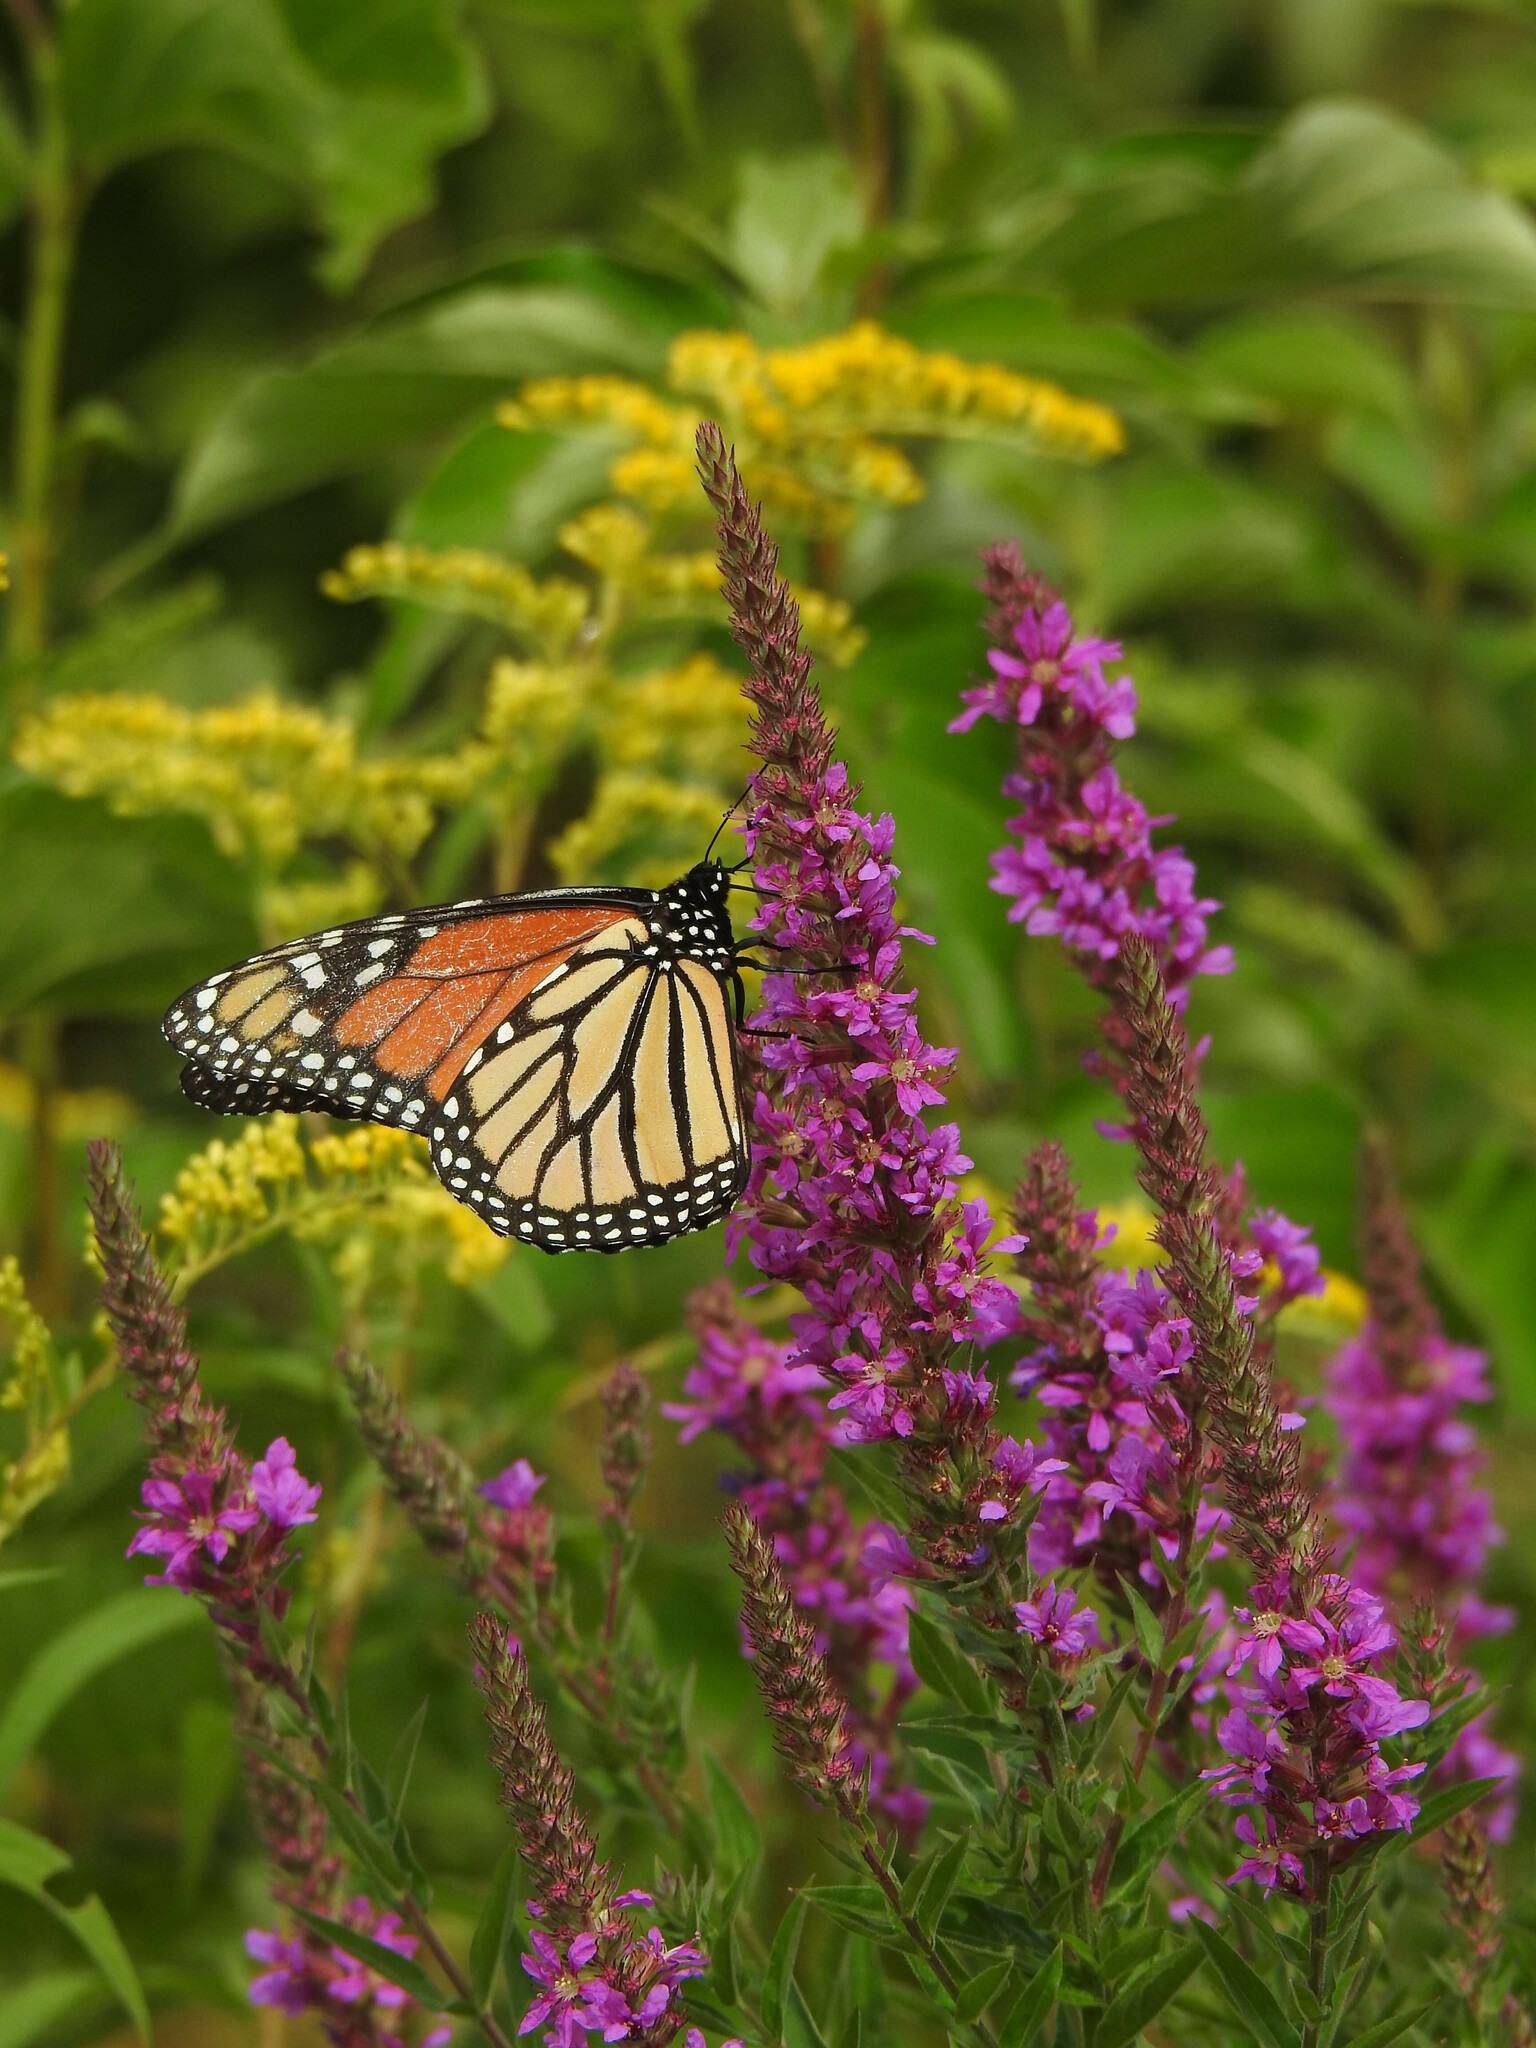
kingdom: Animalia
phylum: Arthropoda
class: Insecta
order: Lepidoptera
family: Nymphalidae
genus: Danaus
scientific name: Danaus plexippus
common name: Monarch
